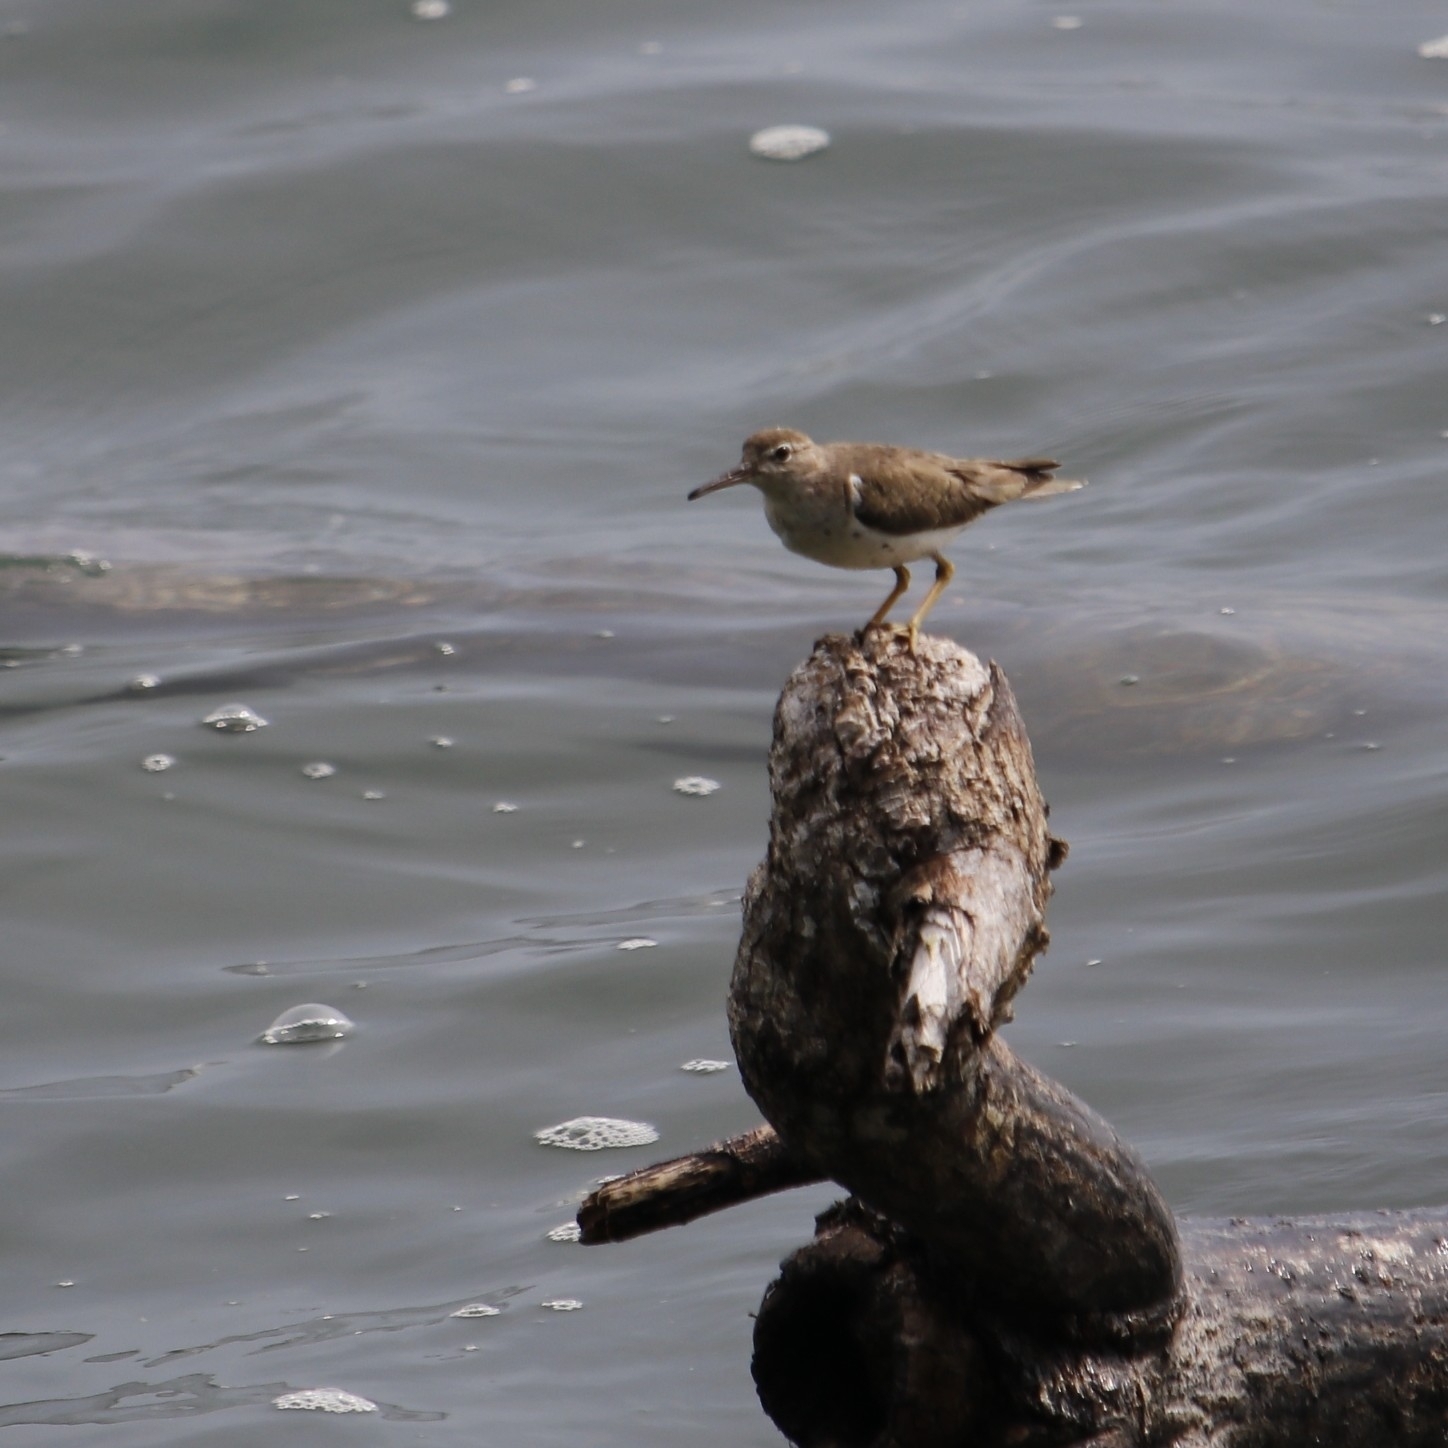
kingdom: Animalia
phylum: Chordata
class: Aves
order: Charadriiformes
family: Scolopacidae
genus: Actitis
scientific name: Actitis macularius
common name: Spotted sandpiper
